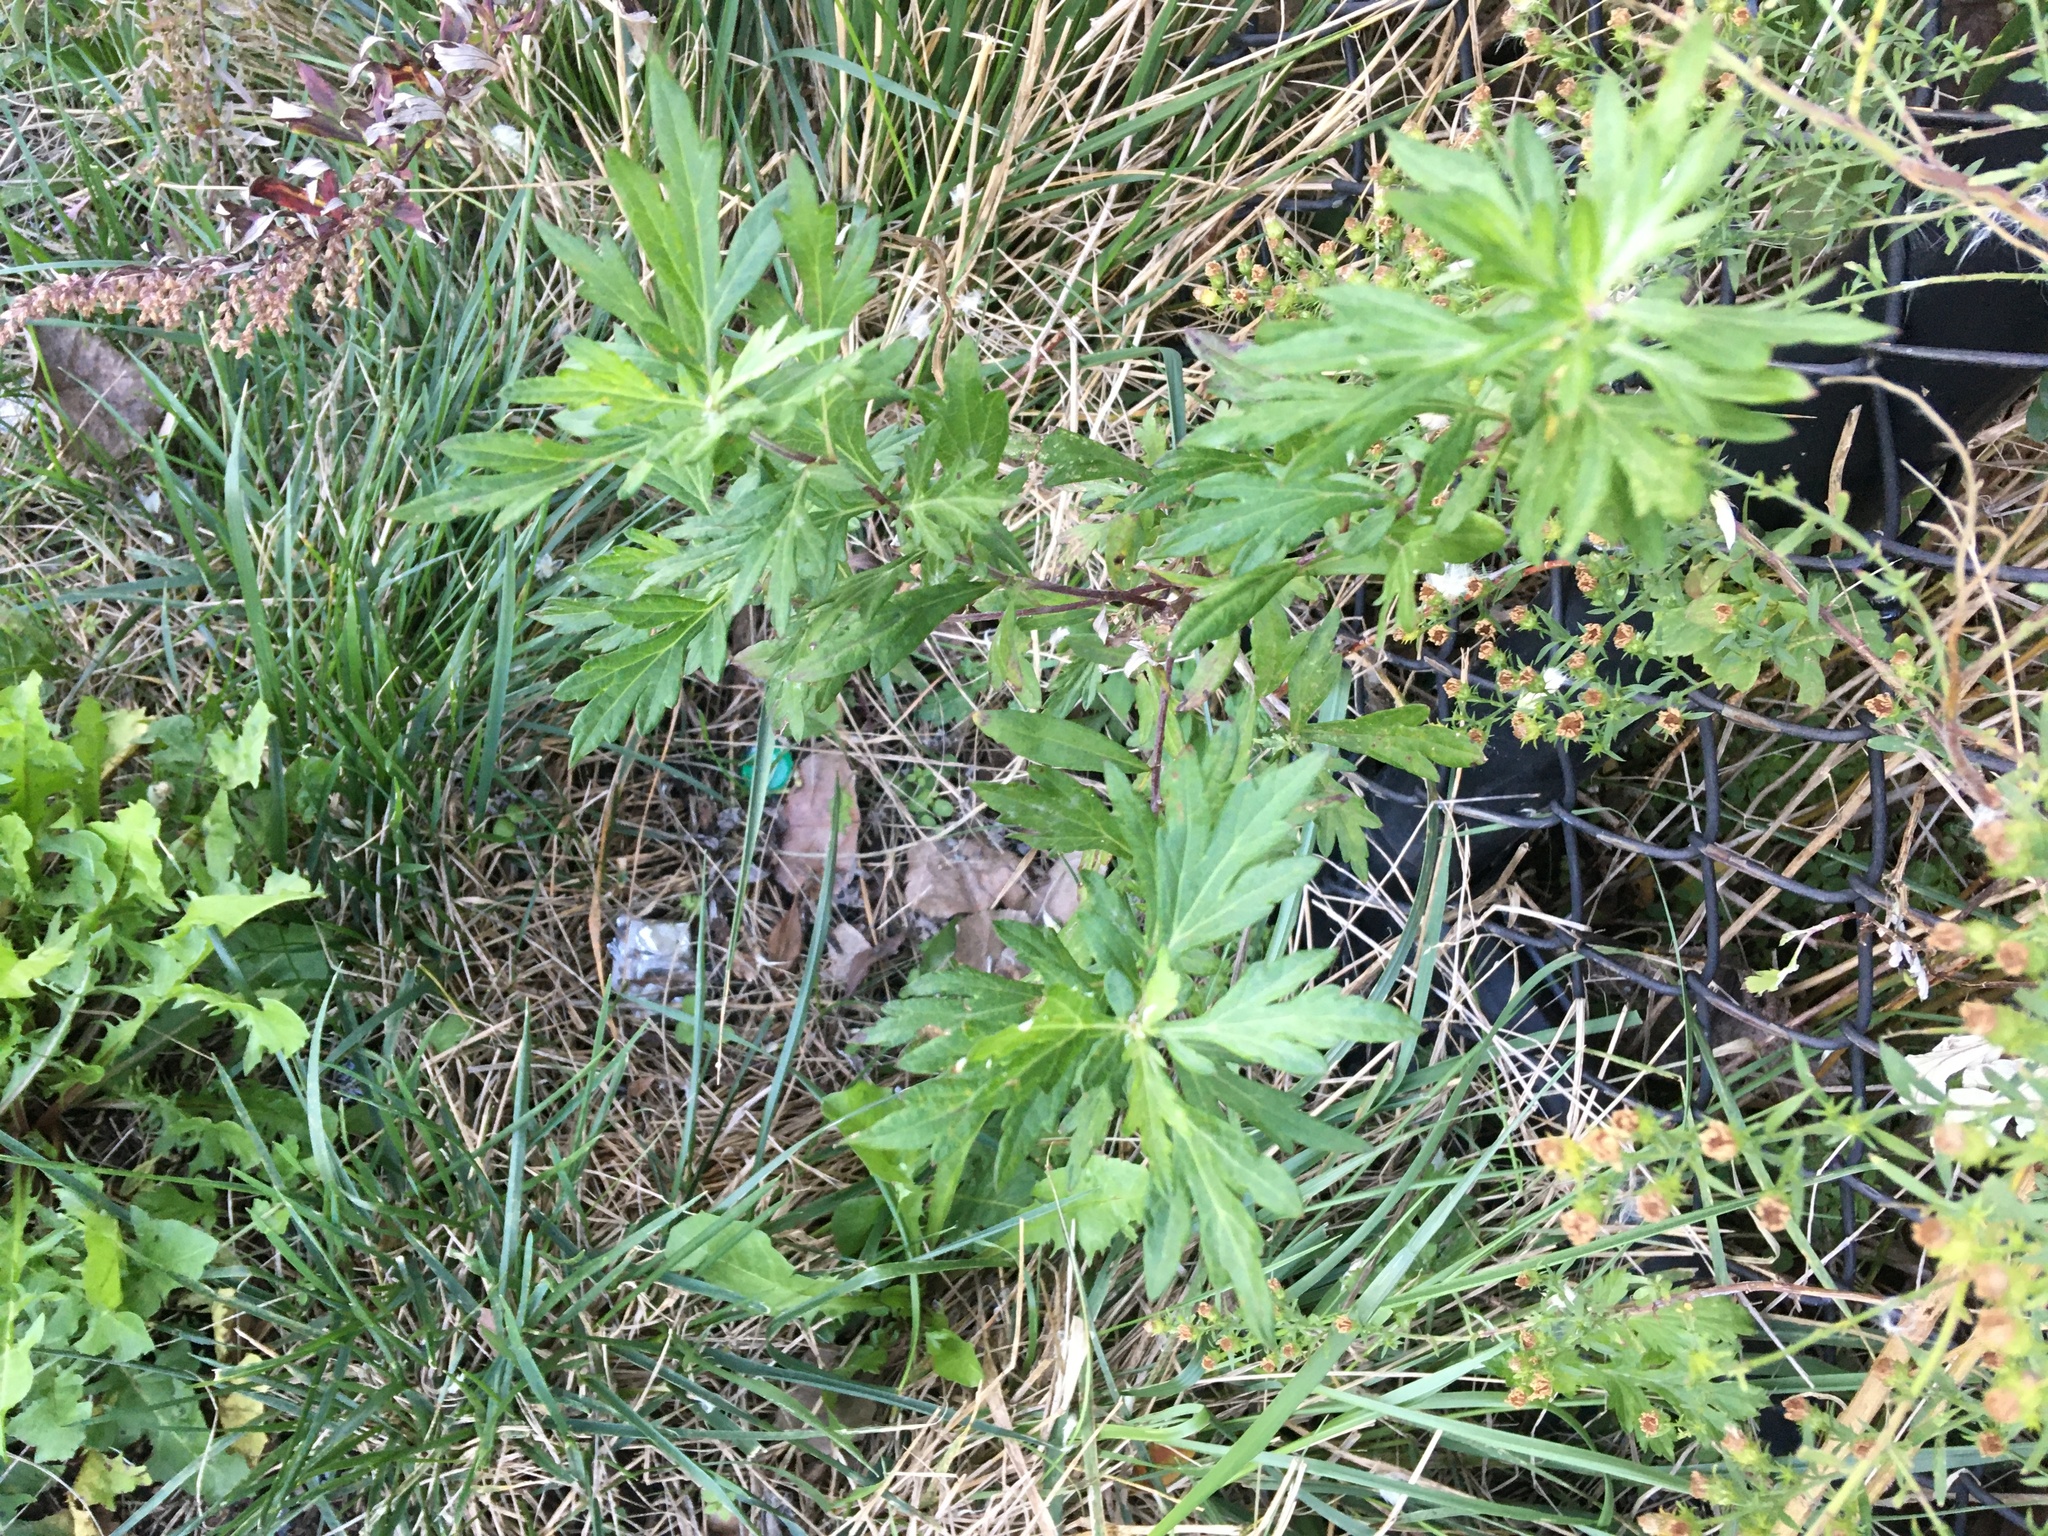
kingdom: Plantae
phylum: Tracheophyta
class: Magnoliopsida
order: Asterales
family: Asteraceae
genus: Artemisia
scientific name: Artemisia vulgaris
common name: Mugwort
